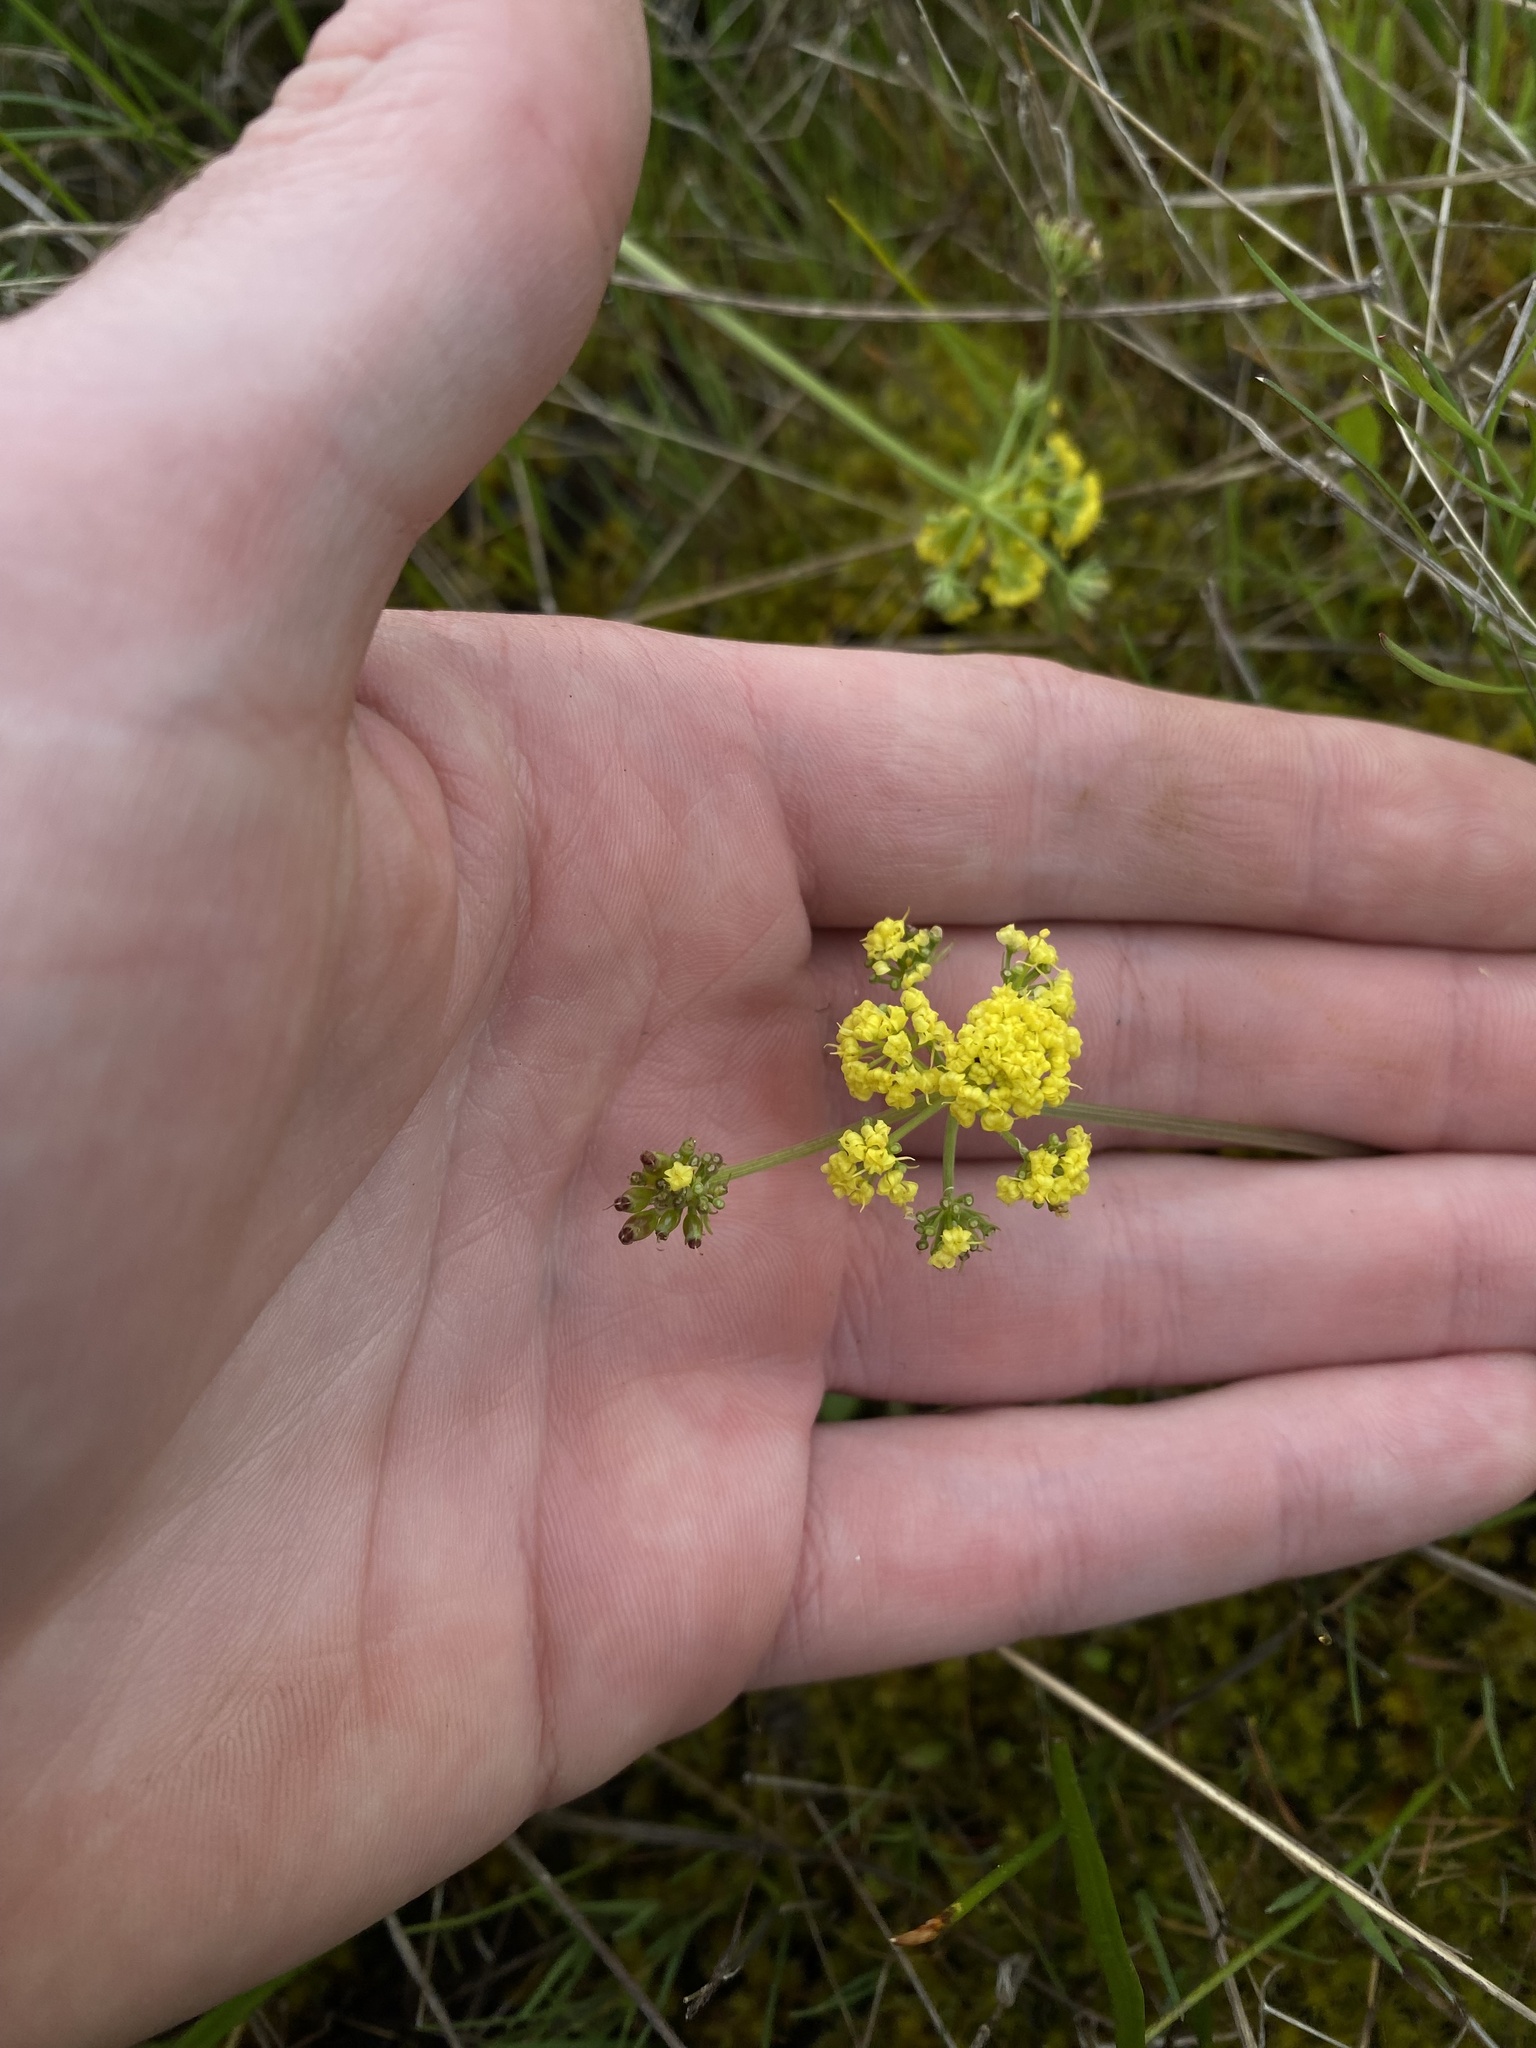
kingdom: Plantae
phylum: Tracheophyta
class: Magnoliopsida
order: Apiales
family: Apiaceae
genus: Lomatium
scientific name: Lomatium bradshawii
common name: Bradshaw's desert-parsley
